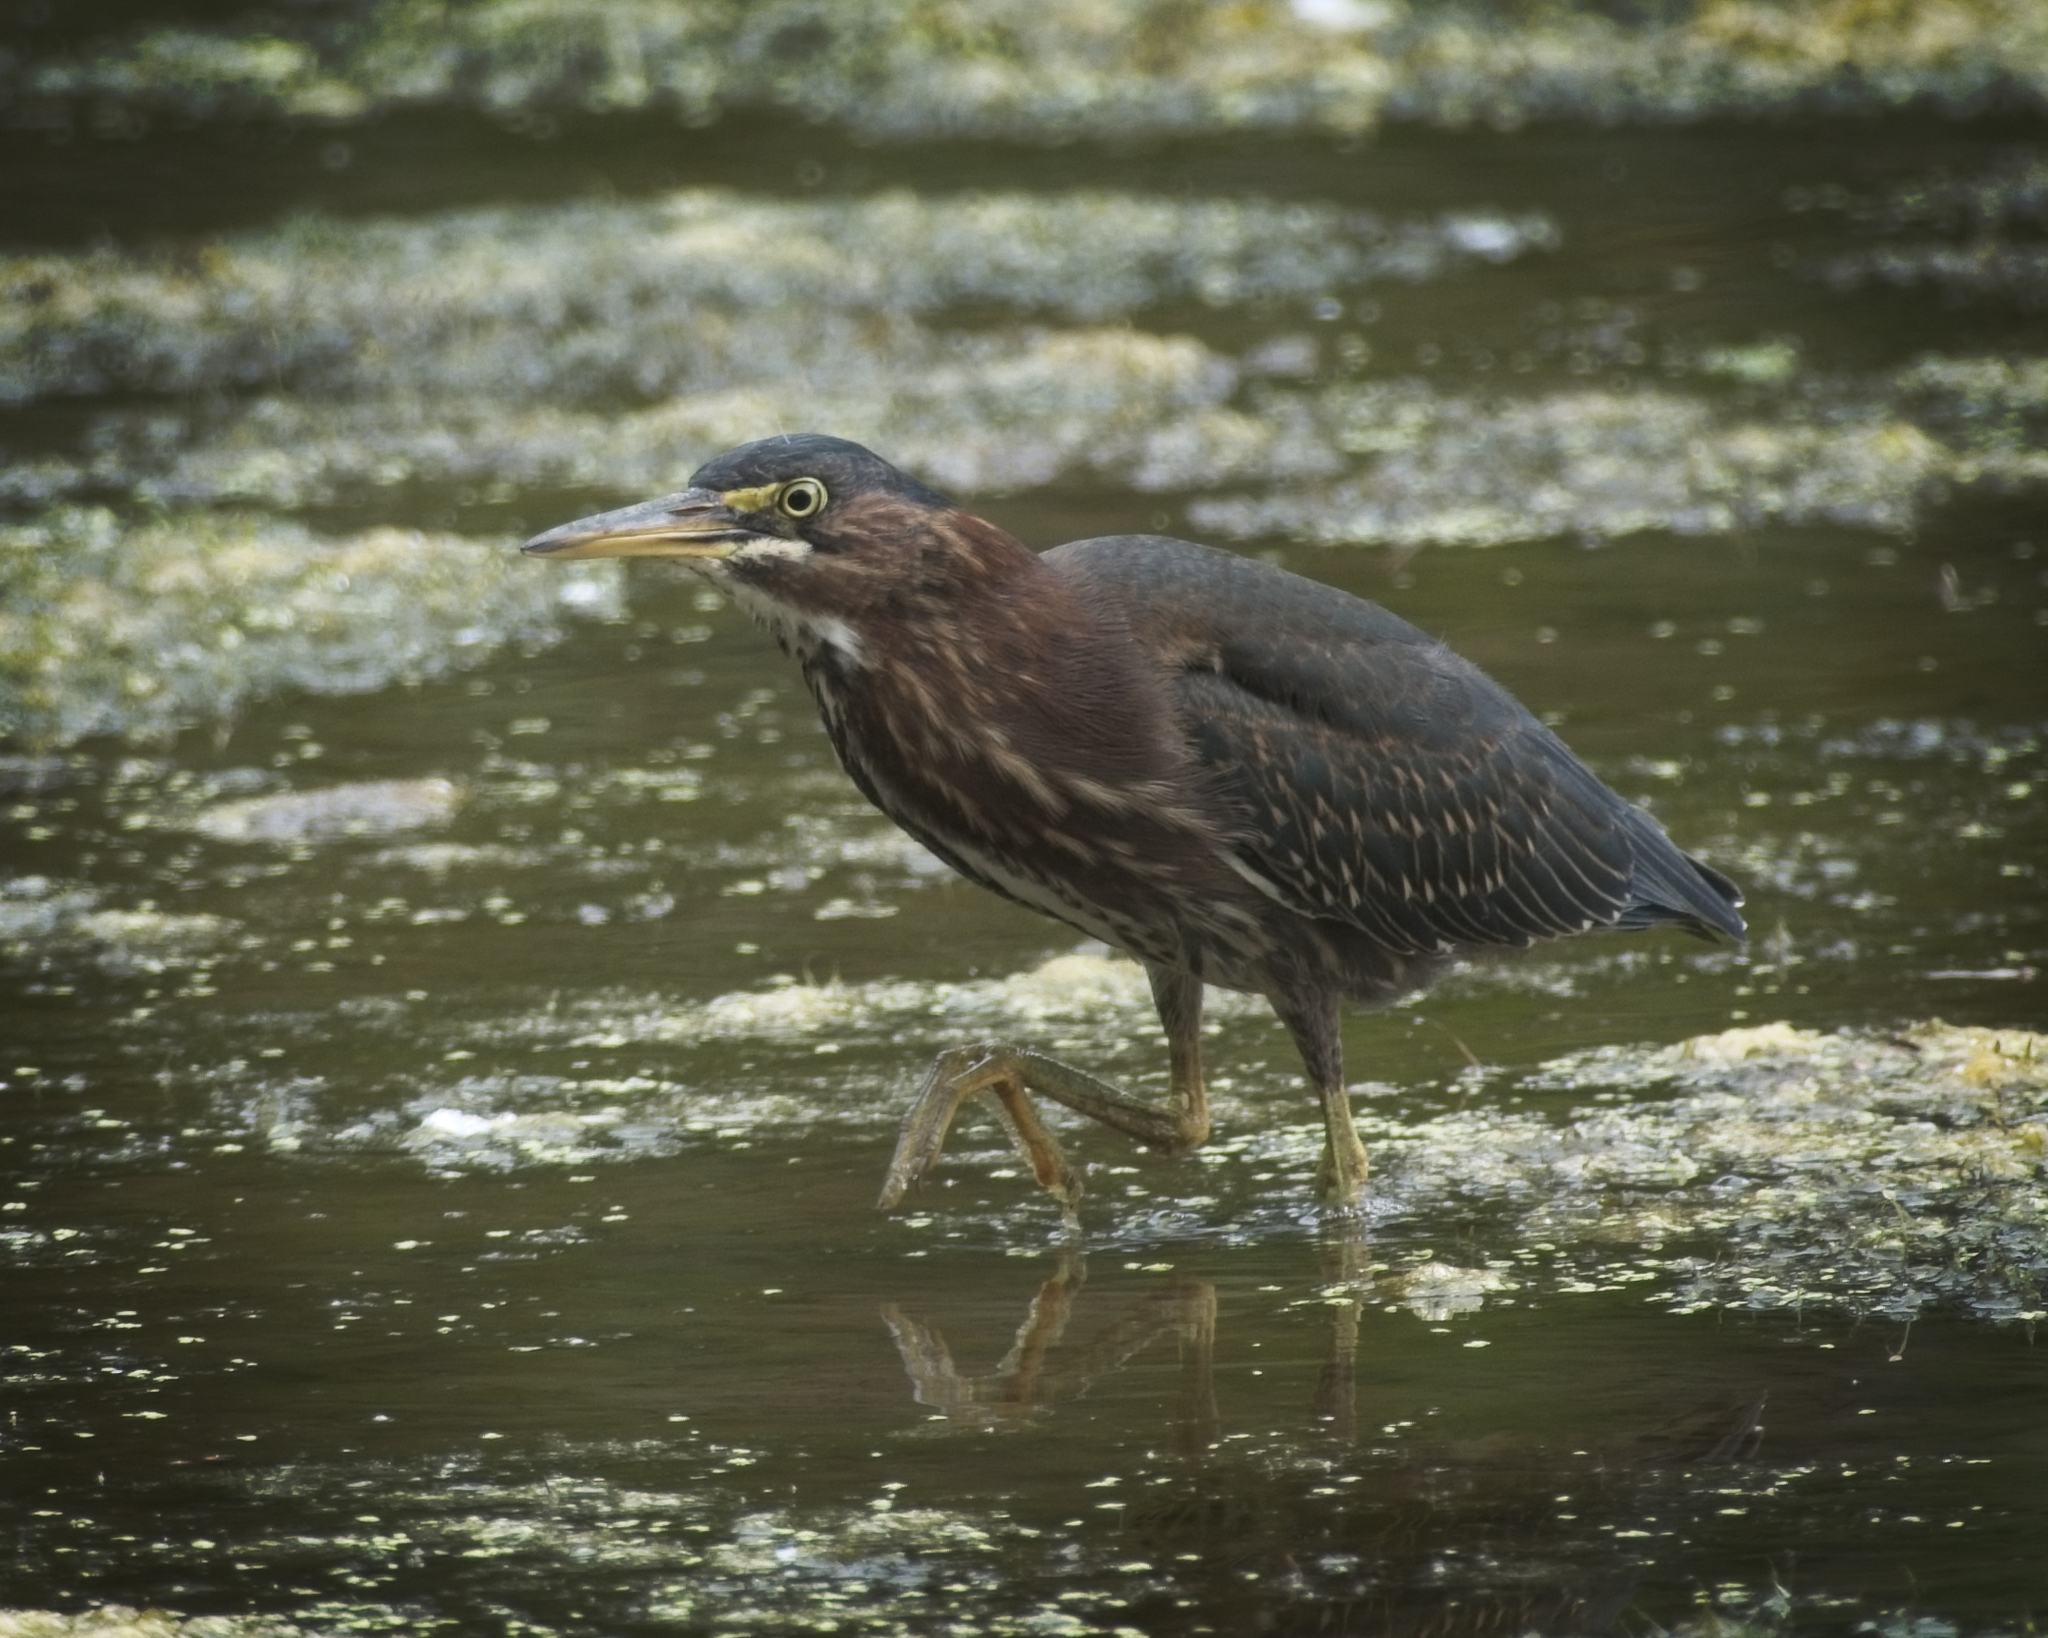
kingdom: Animalia
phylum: Chordata
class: Aves
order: Pelecaniformes
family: Ardeidae
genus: Butorides
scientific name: Butorides virescens
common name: Green heron
